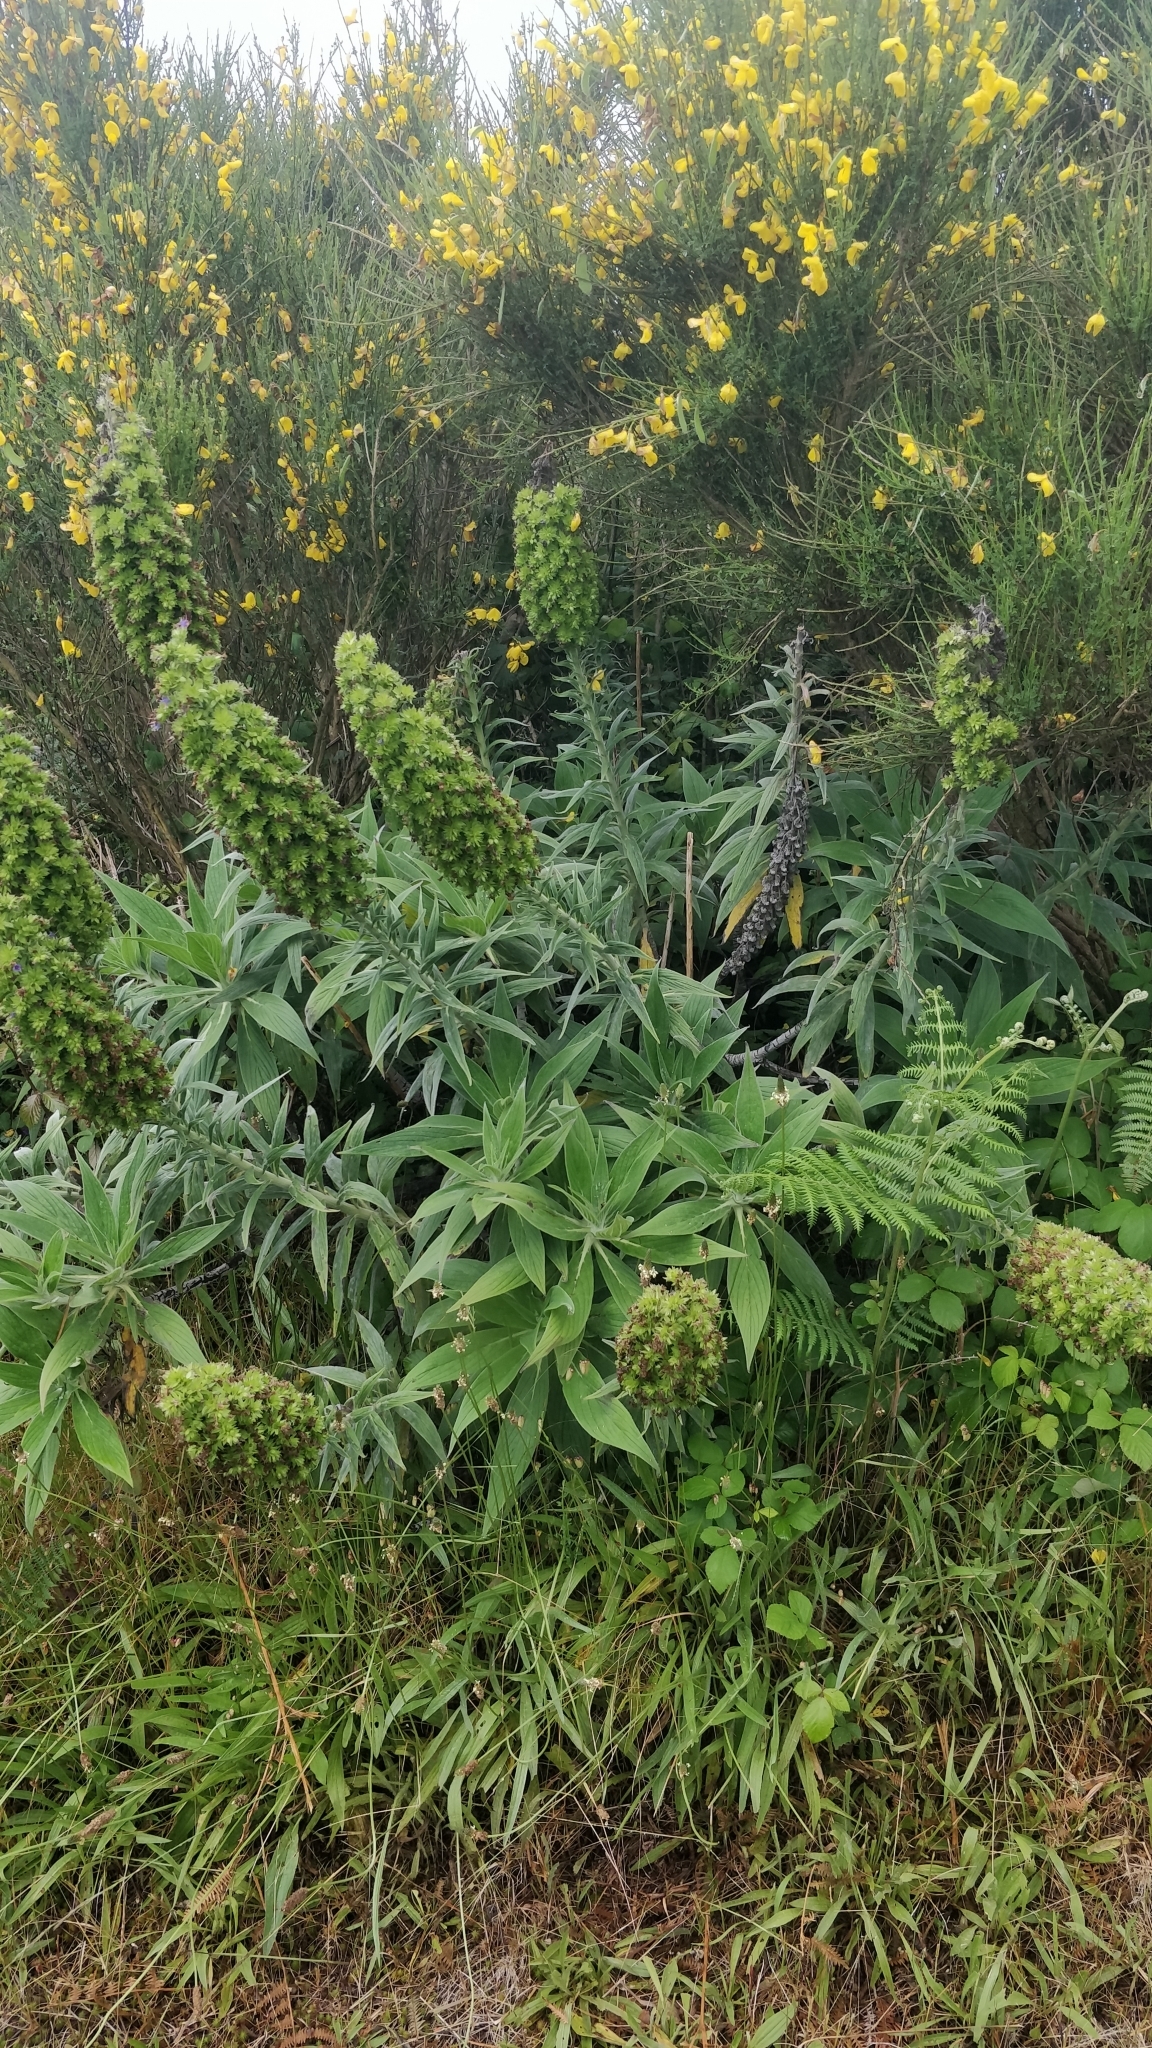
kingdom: Plantae
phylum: Tracheophyta
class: Magnoliopsida
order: Boraginales
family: Boraginaceae
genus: Echium
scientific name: Echium candicans
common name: Pride of madeira
